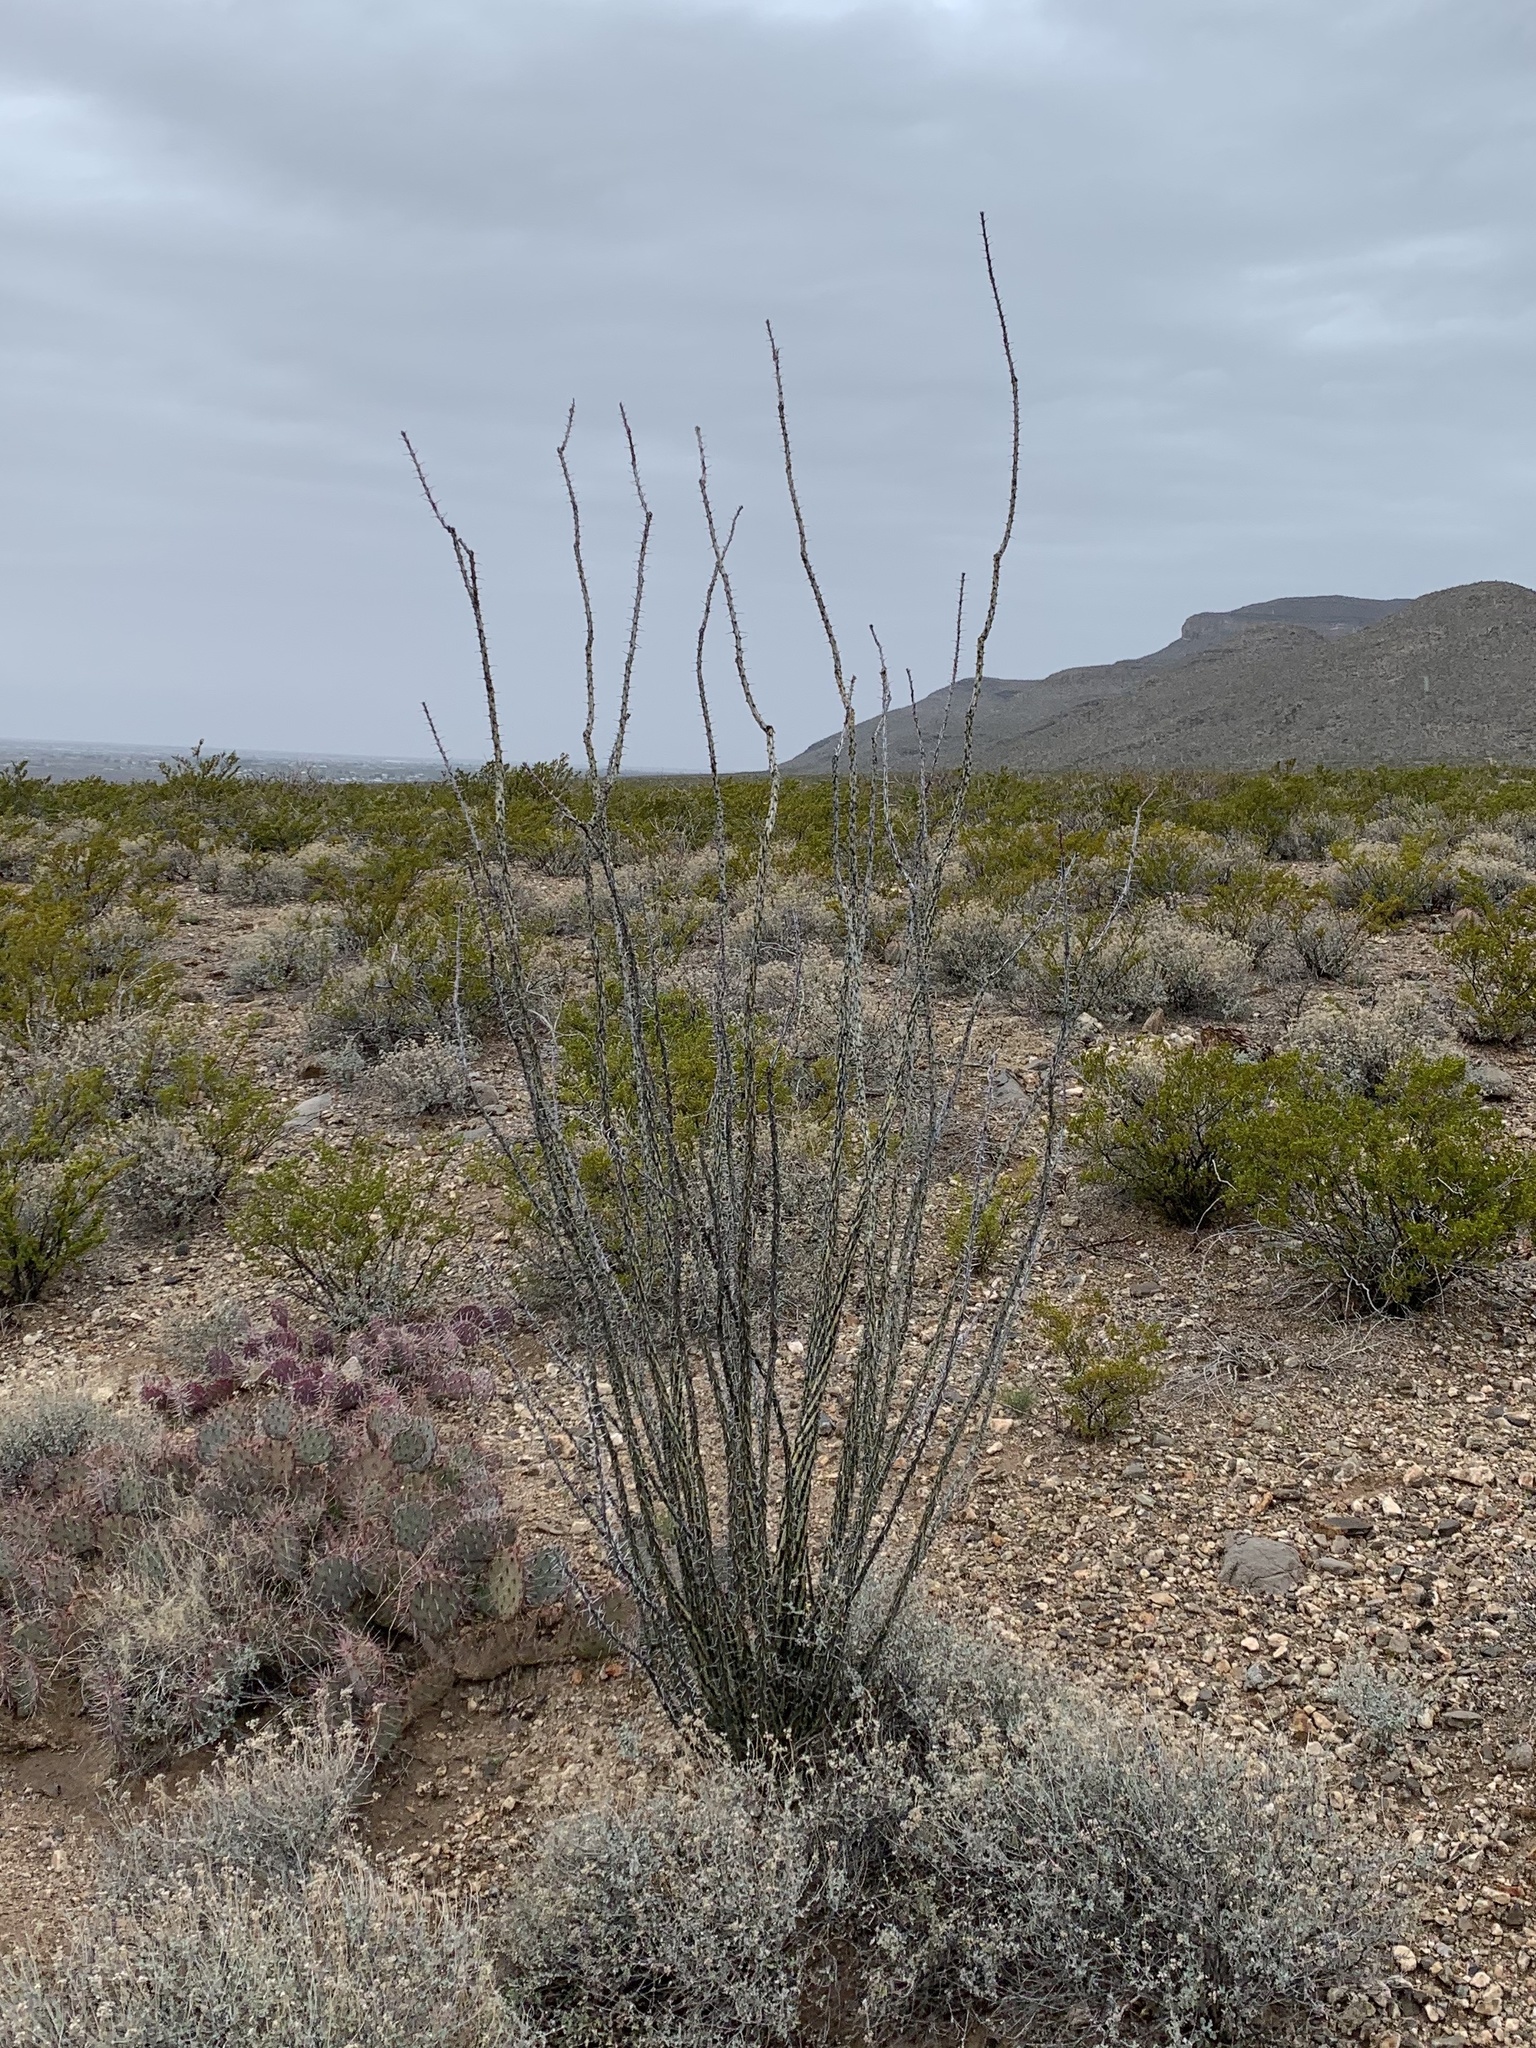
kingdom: Plantae
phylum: Tracheophyta
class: Magnoliopsida
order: Ericales
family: Fouquieriaceae
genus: Fouquieria
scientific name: Fouquieria splendens
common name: Vine-cactus
